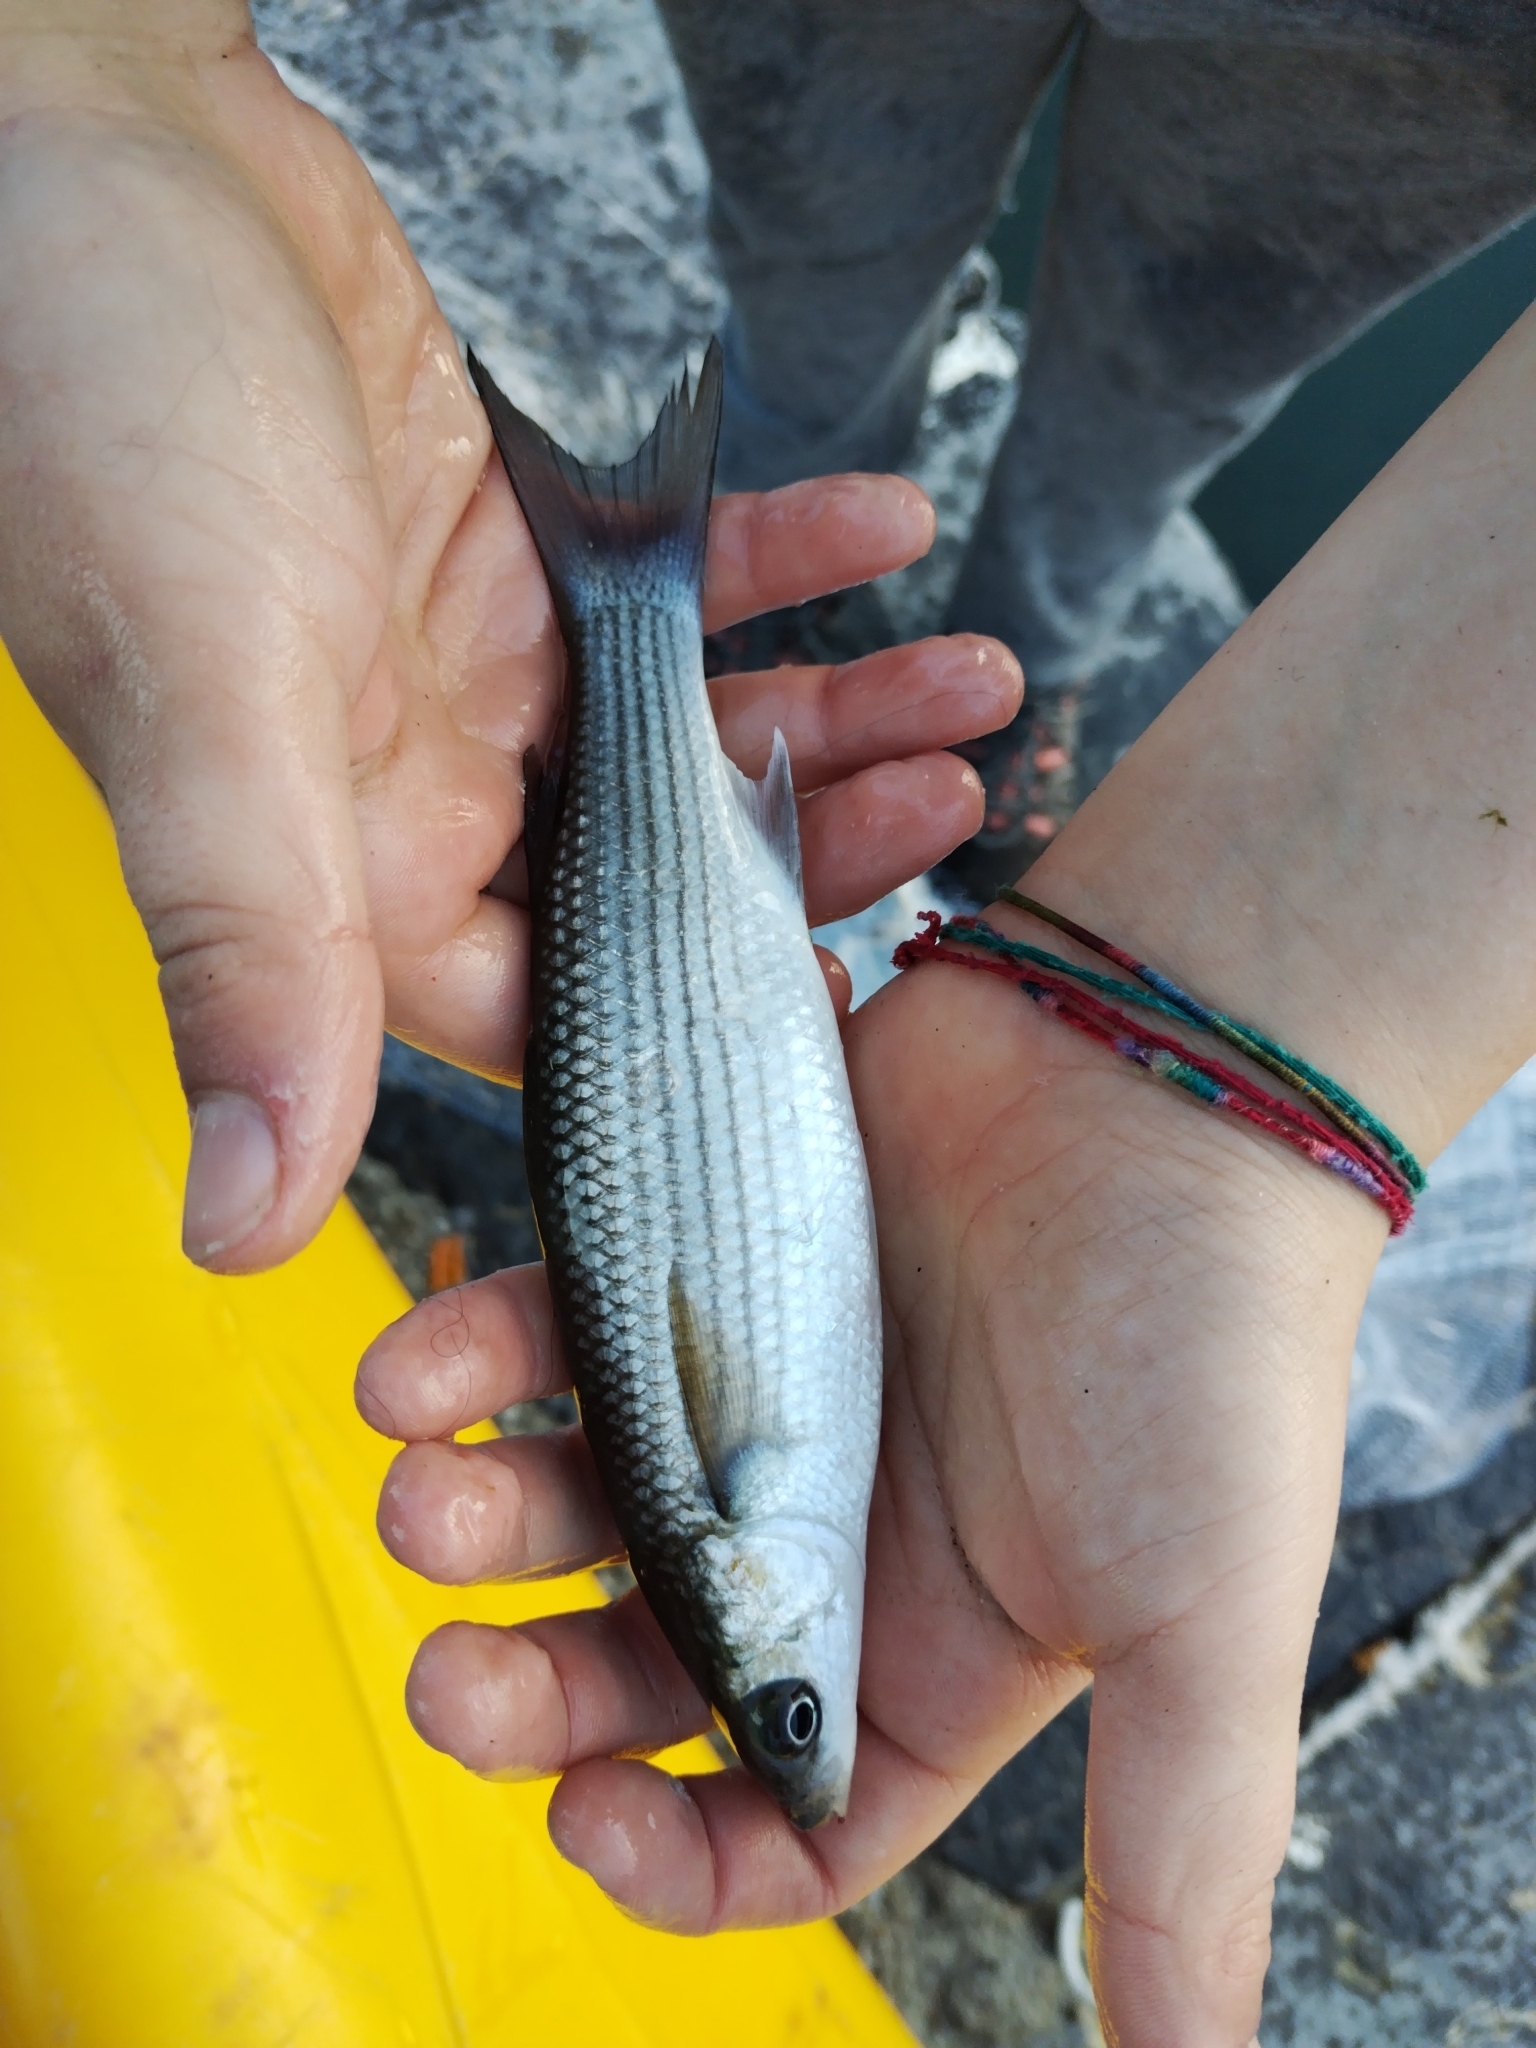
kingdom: Animalia
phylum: Chordata
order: Mugiliformes
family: Mugilidae
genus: Chelon
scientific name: Chelon labrosus
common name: Thick-lipped mullet
